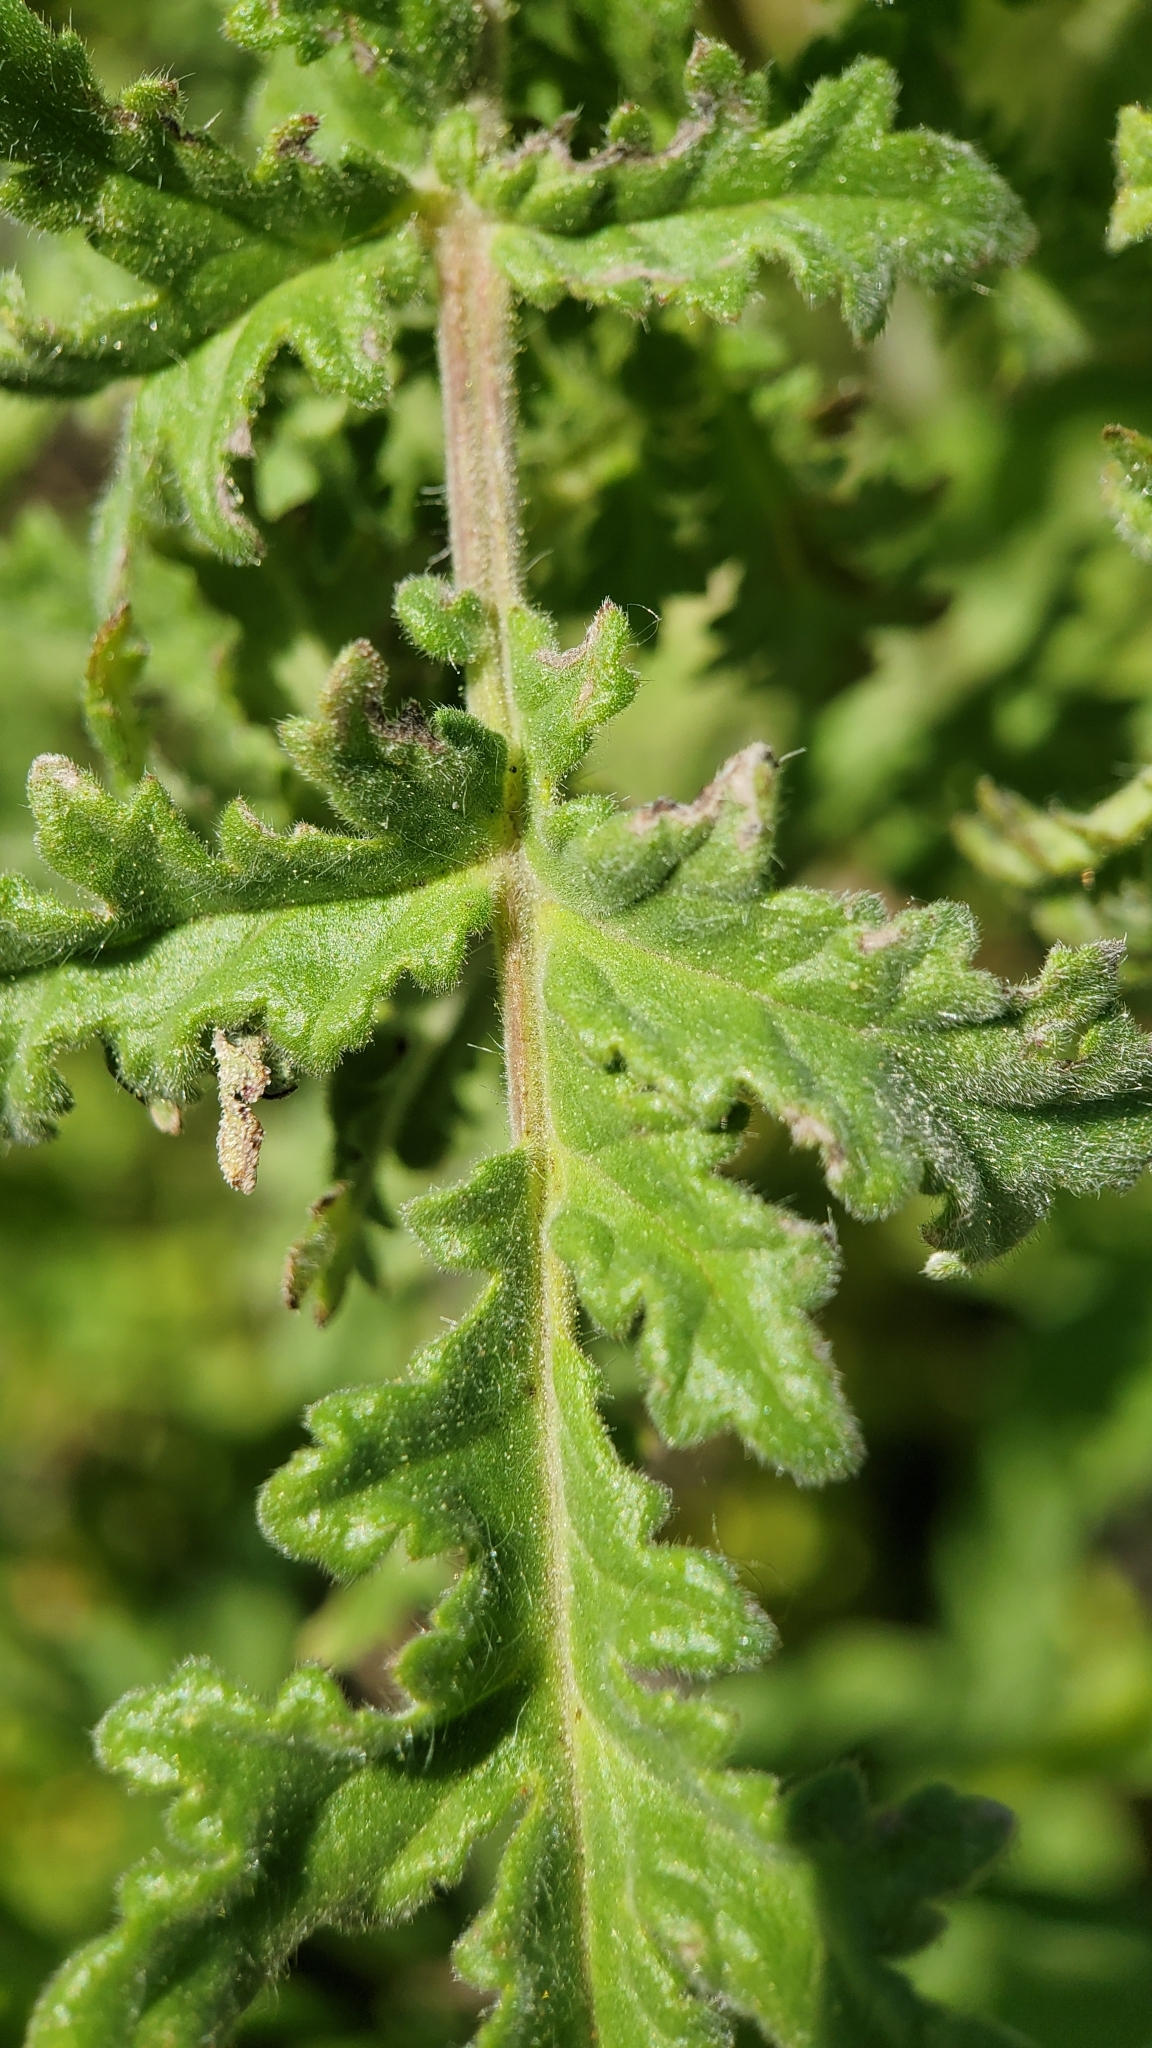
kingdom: Plantae
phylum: Tracheophyta
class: Magnoliopsida
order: Boraginales
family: Hydrophyllaceae
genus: Phacelia
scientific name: Phacelia hubbyi
